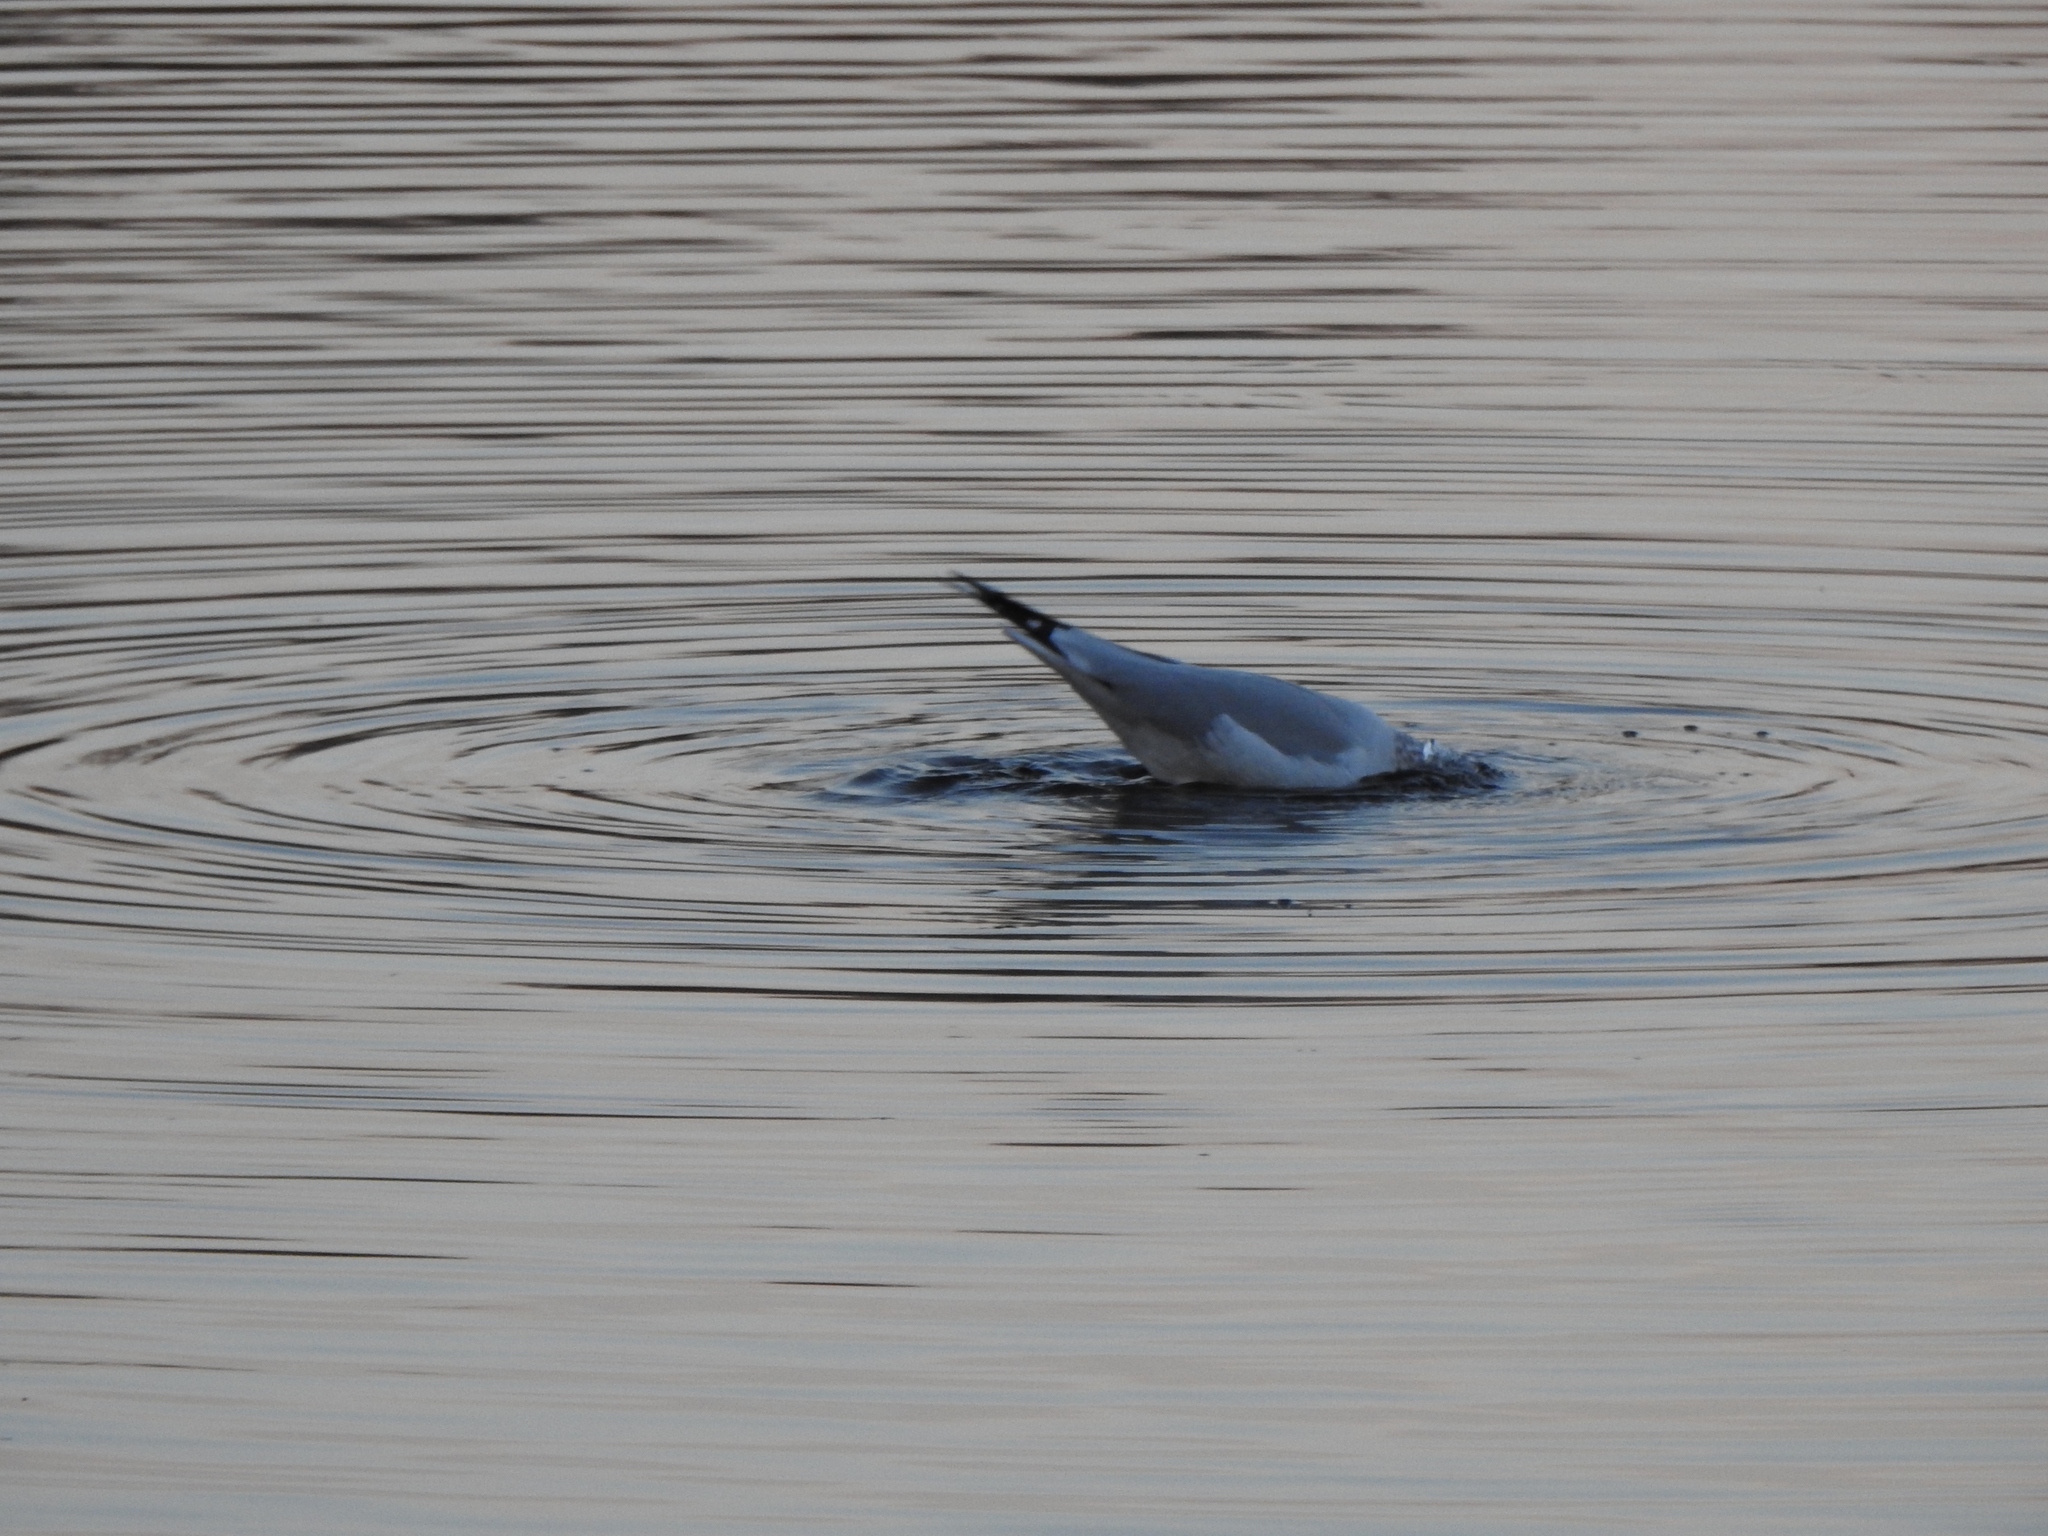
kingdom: Animalia
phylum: Chordata
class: Aves
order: Charadriiformes
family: Laridae
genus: Larus
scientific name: Larus delawarensis
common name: Ring-billed gull
